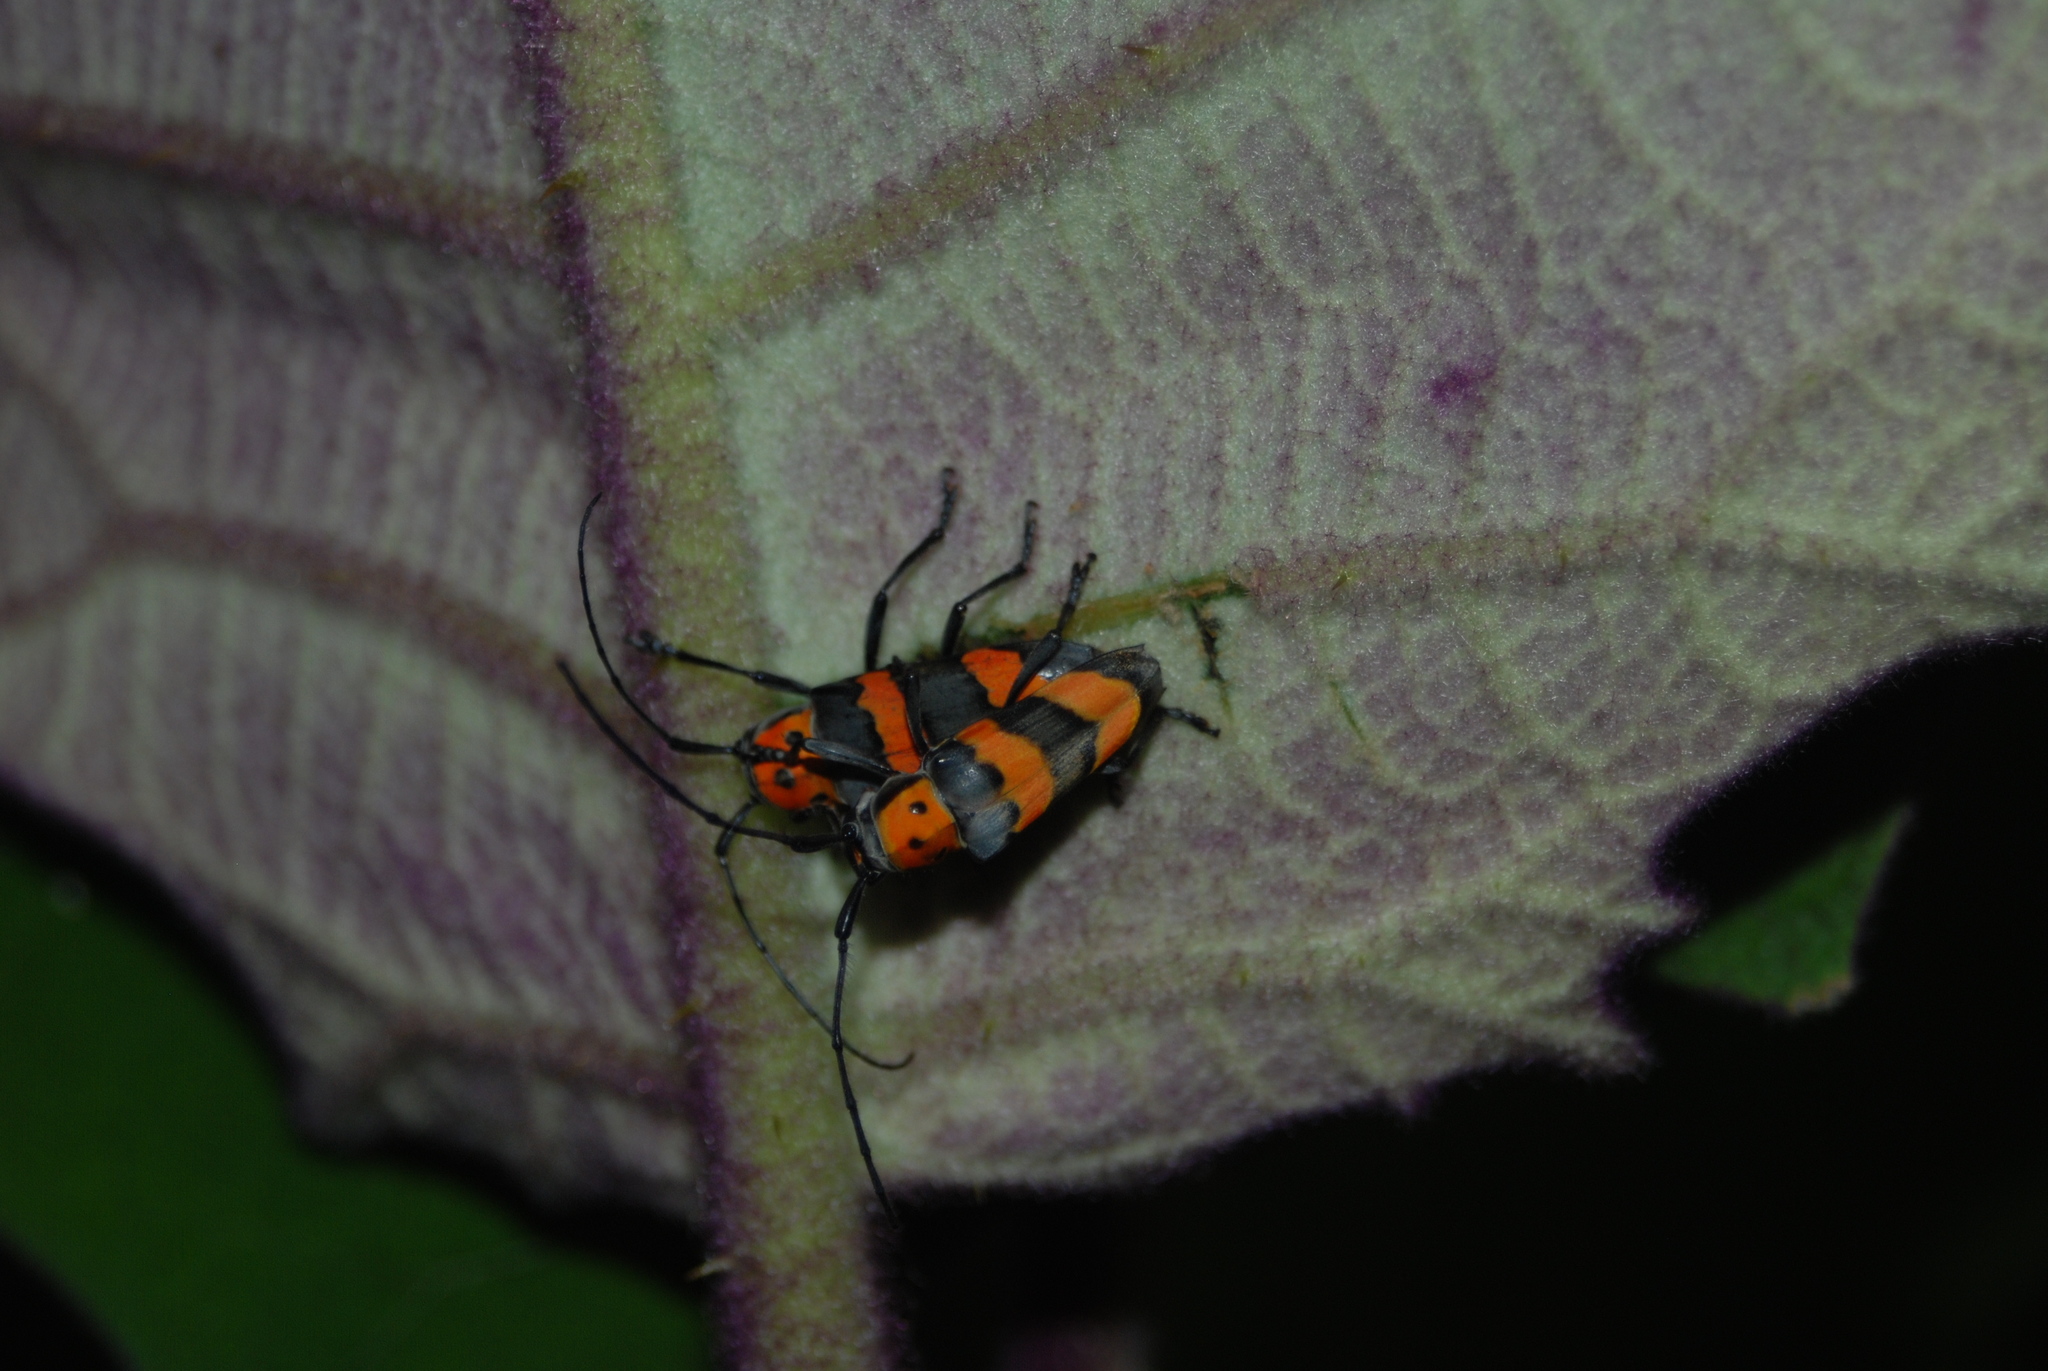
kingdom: Animalia
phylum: Arthropoda
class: Insecta
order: Coleoptera
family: Cerambycidae
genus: Oedudes
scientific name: Oedudes bifasciatus
